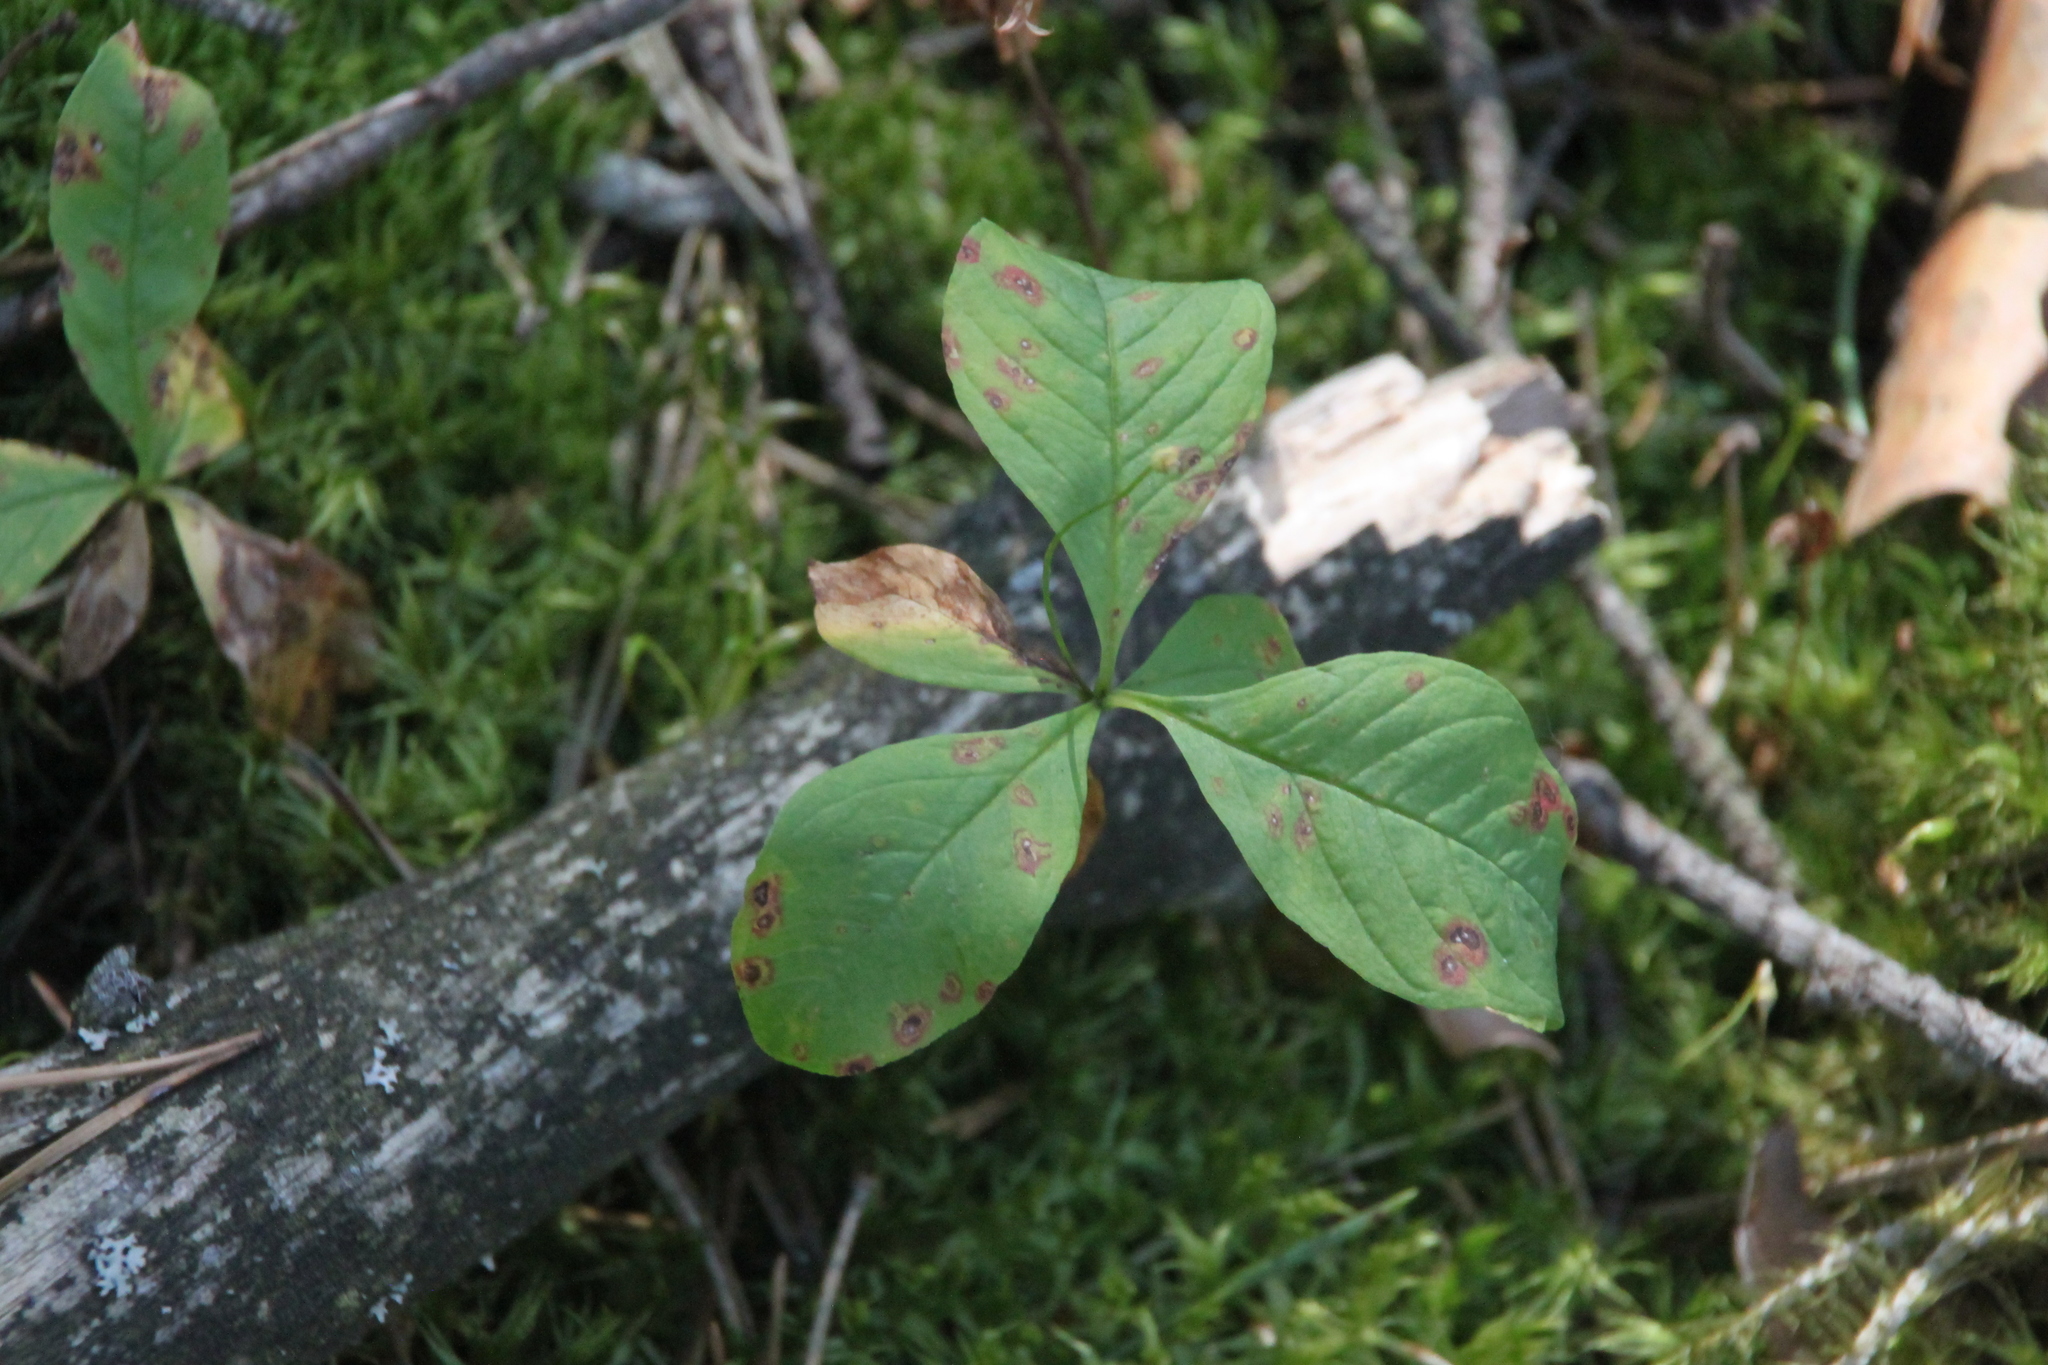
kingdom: Plantae
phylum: Tracheophyta
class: Magnoliopsida
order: Ericales
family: Primulaceae
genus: Lysimachia
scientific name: Lysimachia europaea
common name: Arctic starflower
